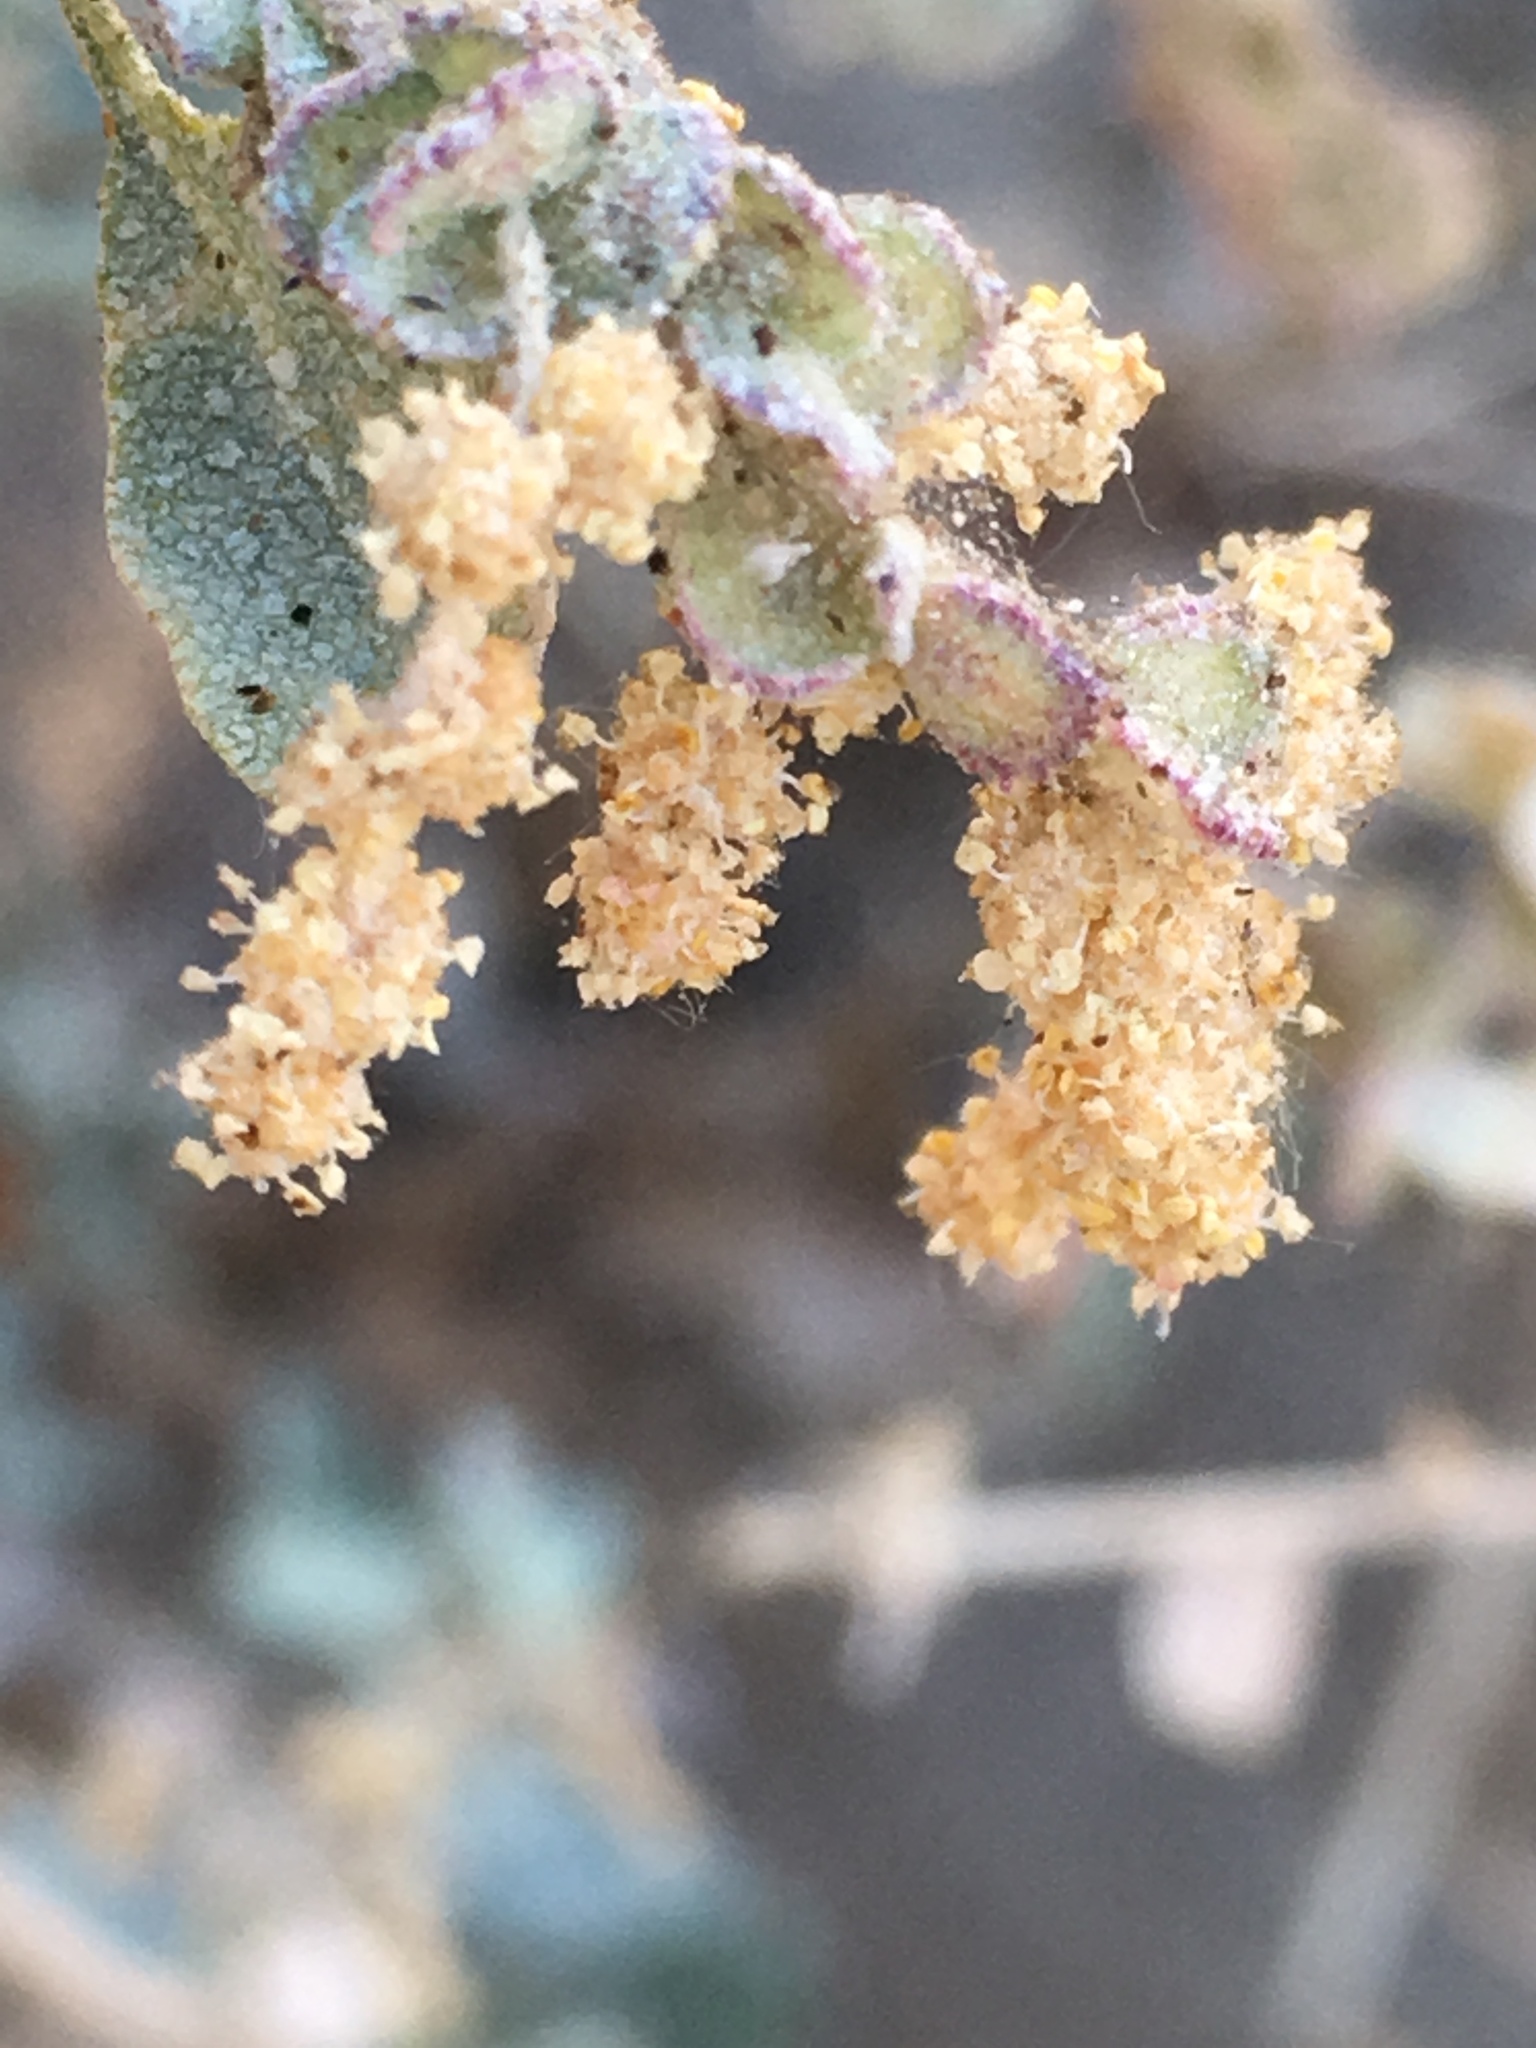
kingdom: Plantae
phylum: Tracheophyta
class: Magnoliopsida
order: Caryophyllales
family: Amaranthaceae
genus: Atriplex
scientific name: Atriplex lentiformis
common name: Big saltbush
